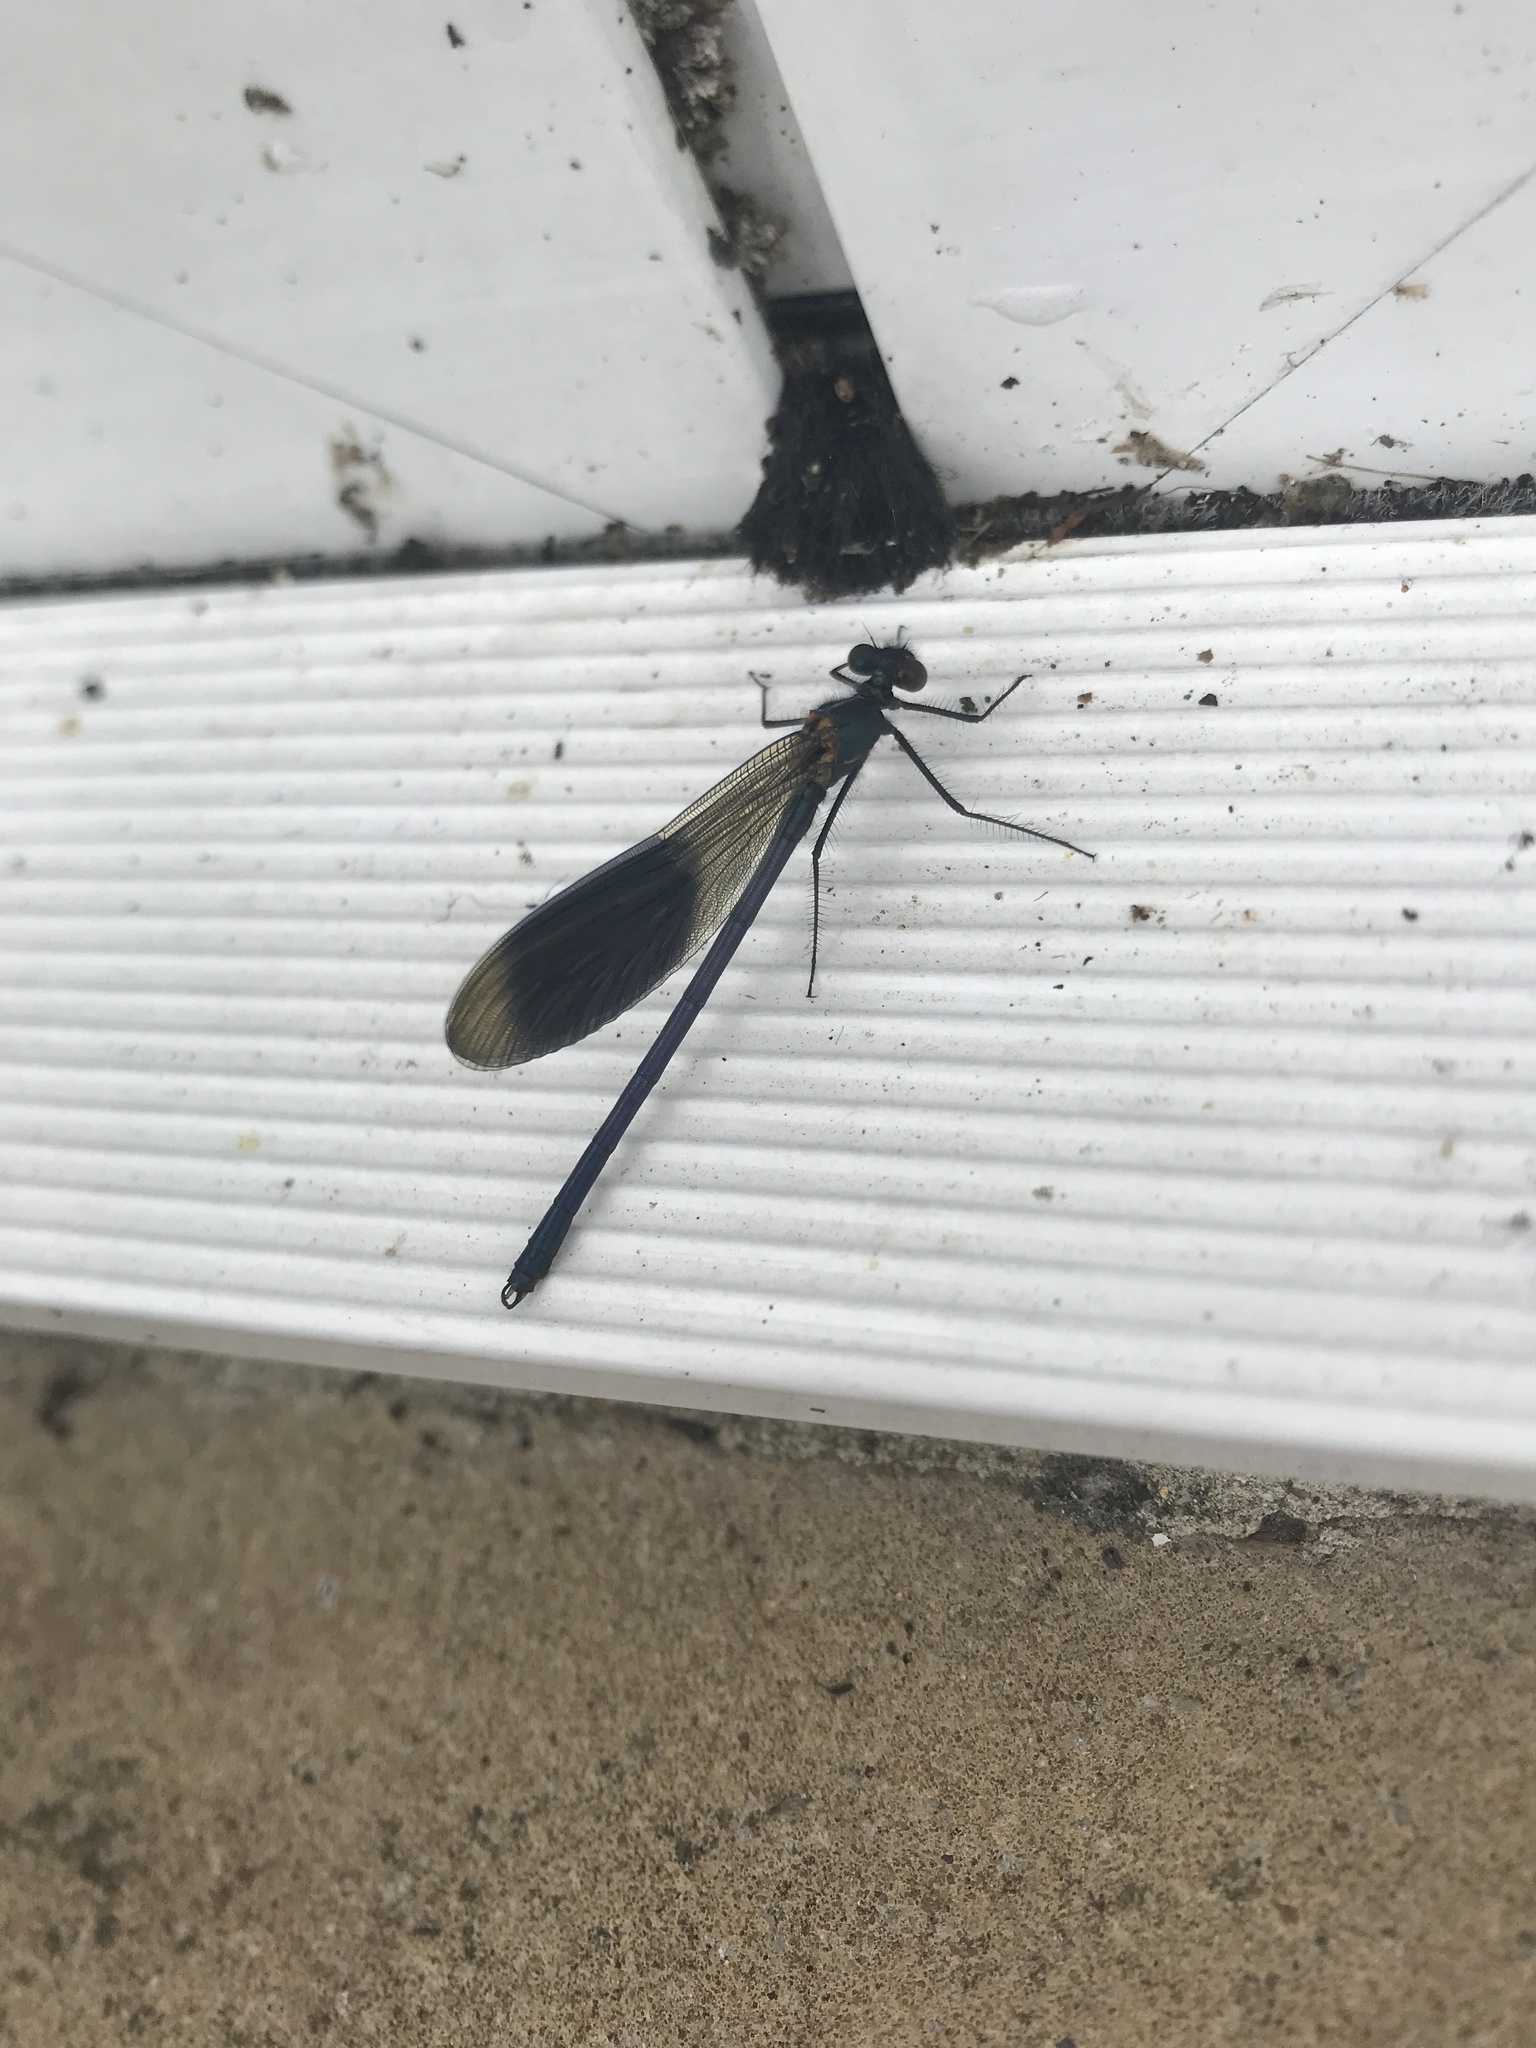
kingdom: Animalia
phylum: Arthropoda
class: Insecta
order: Odonata
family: Calopterygidae
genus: Calopteryx
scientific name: Calopteryx splendens
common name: Banded demoiselle
